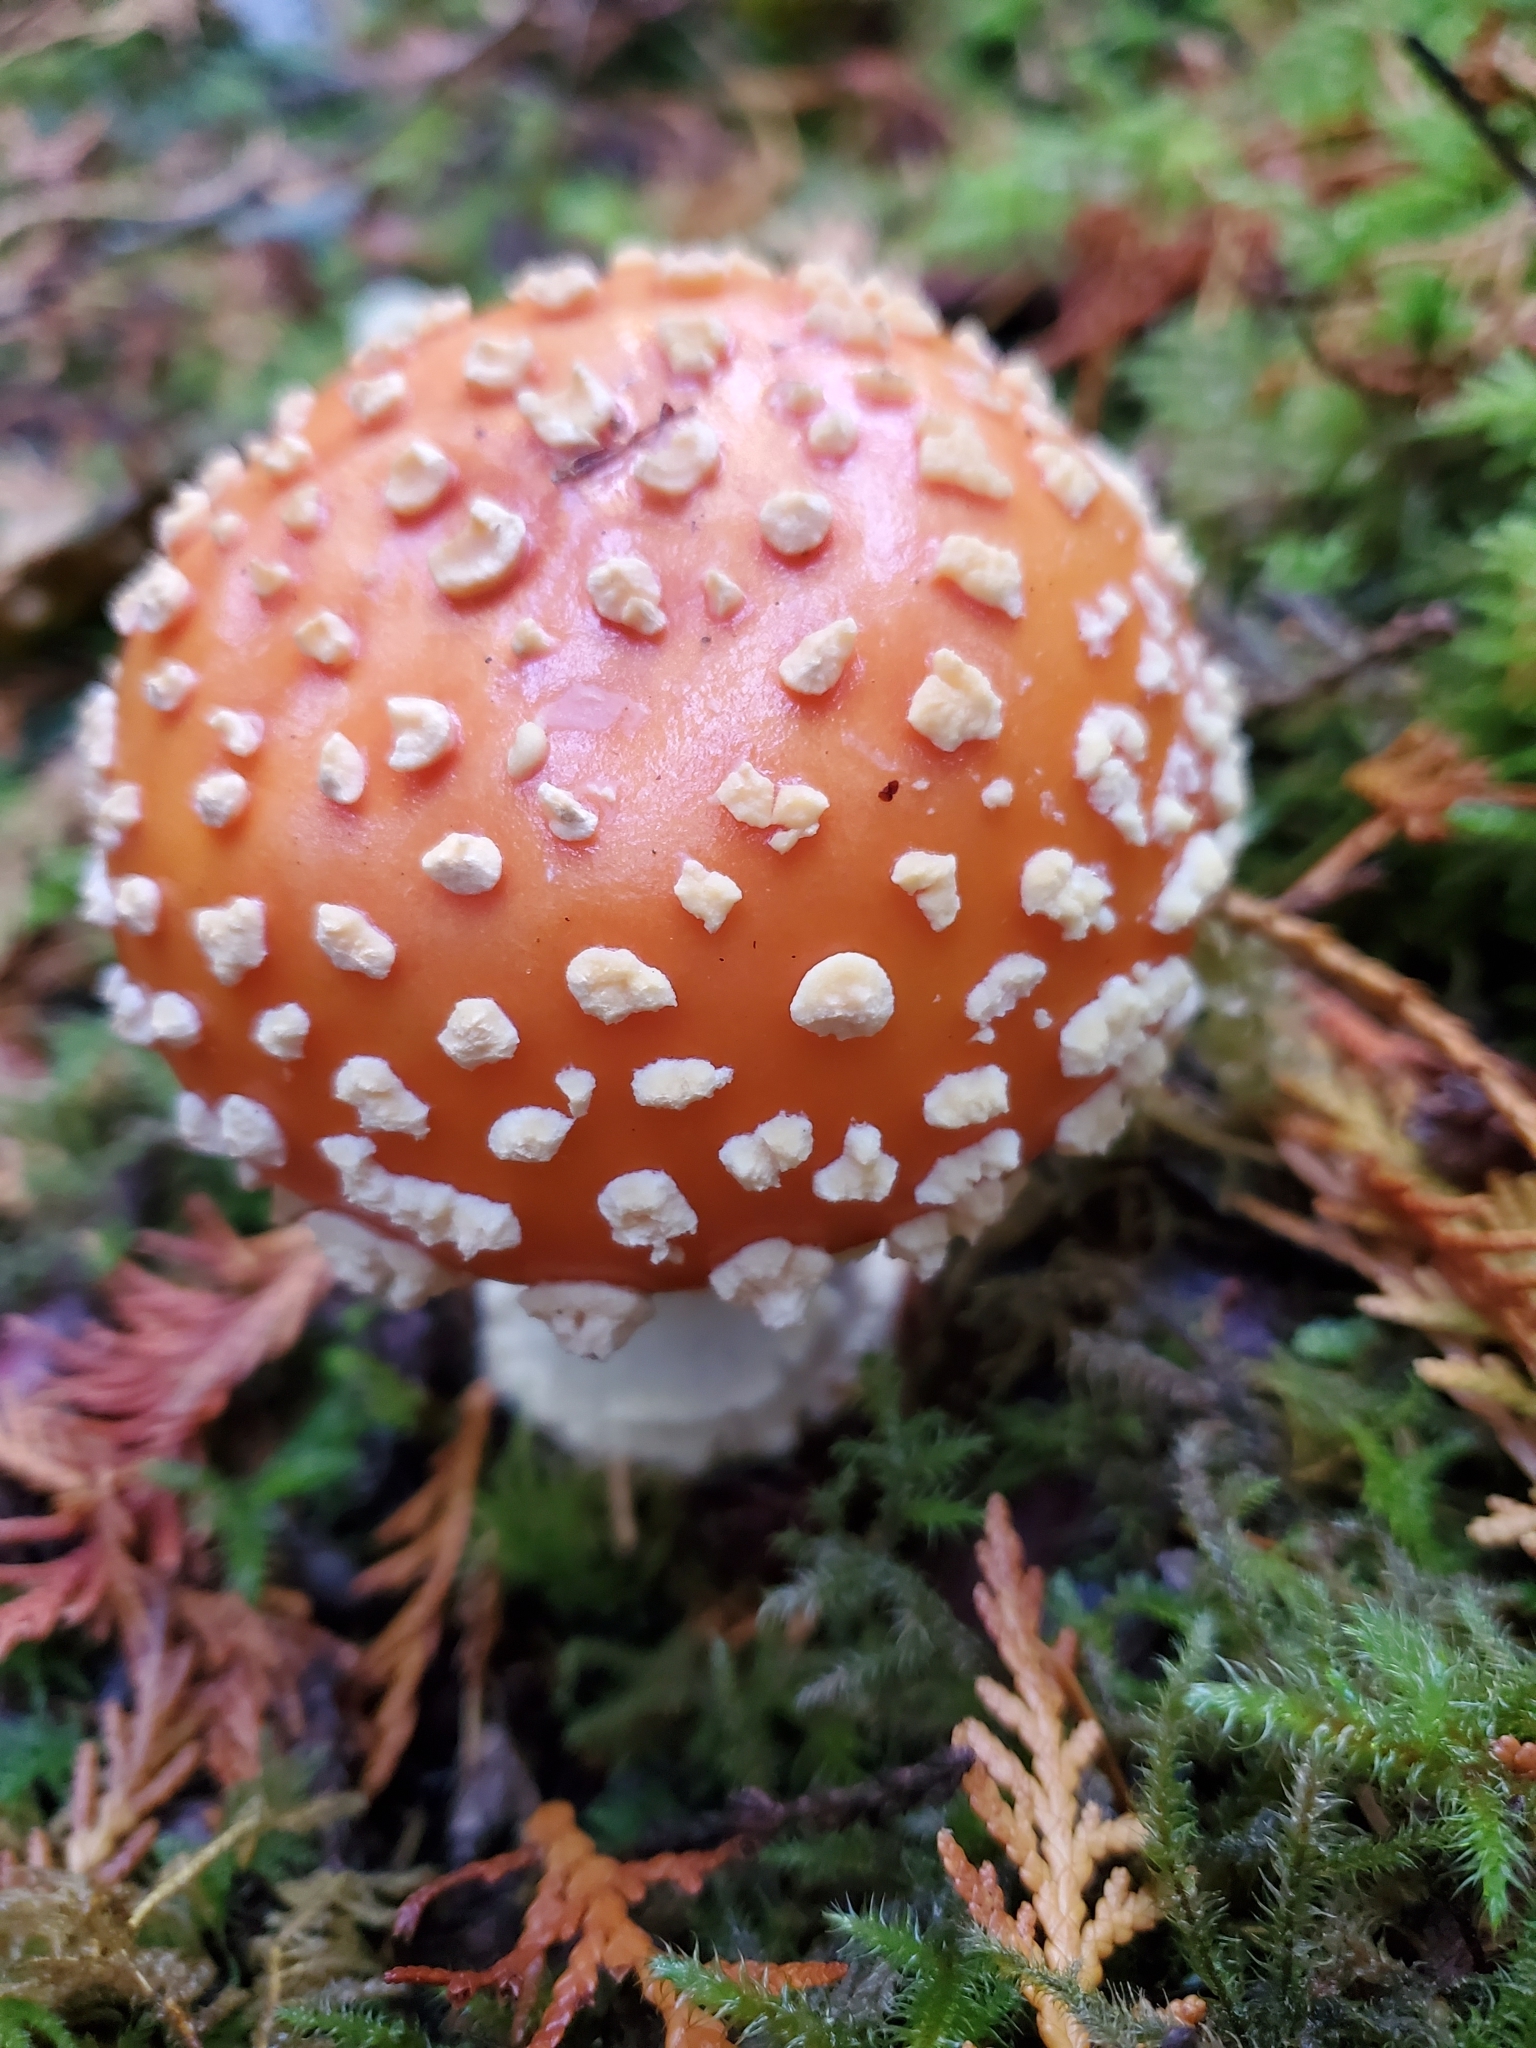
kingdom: Fungi
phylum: Basidiomycota
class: Agaricomycetes
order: Agaricales
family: Amanitaceae
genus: Amanita
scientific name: Amanita muscaria
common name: Fly agaric
